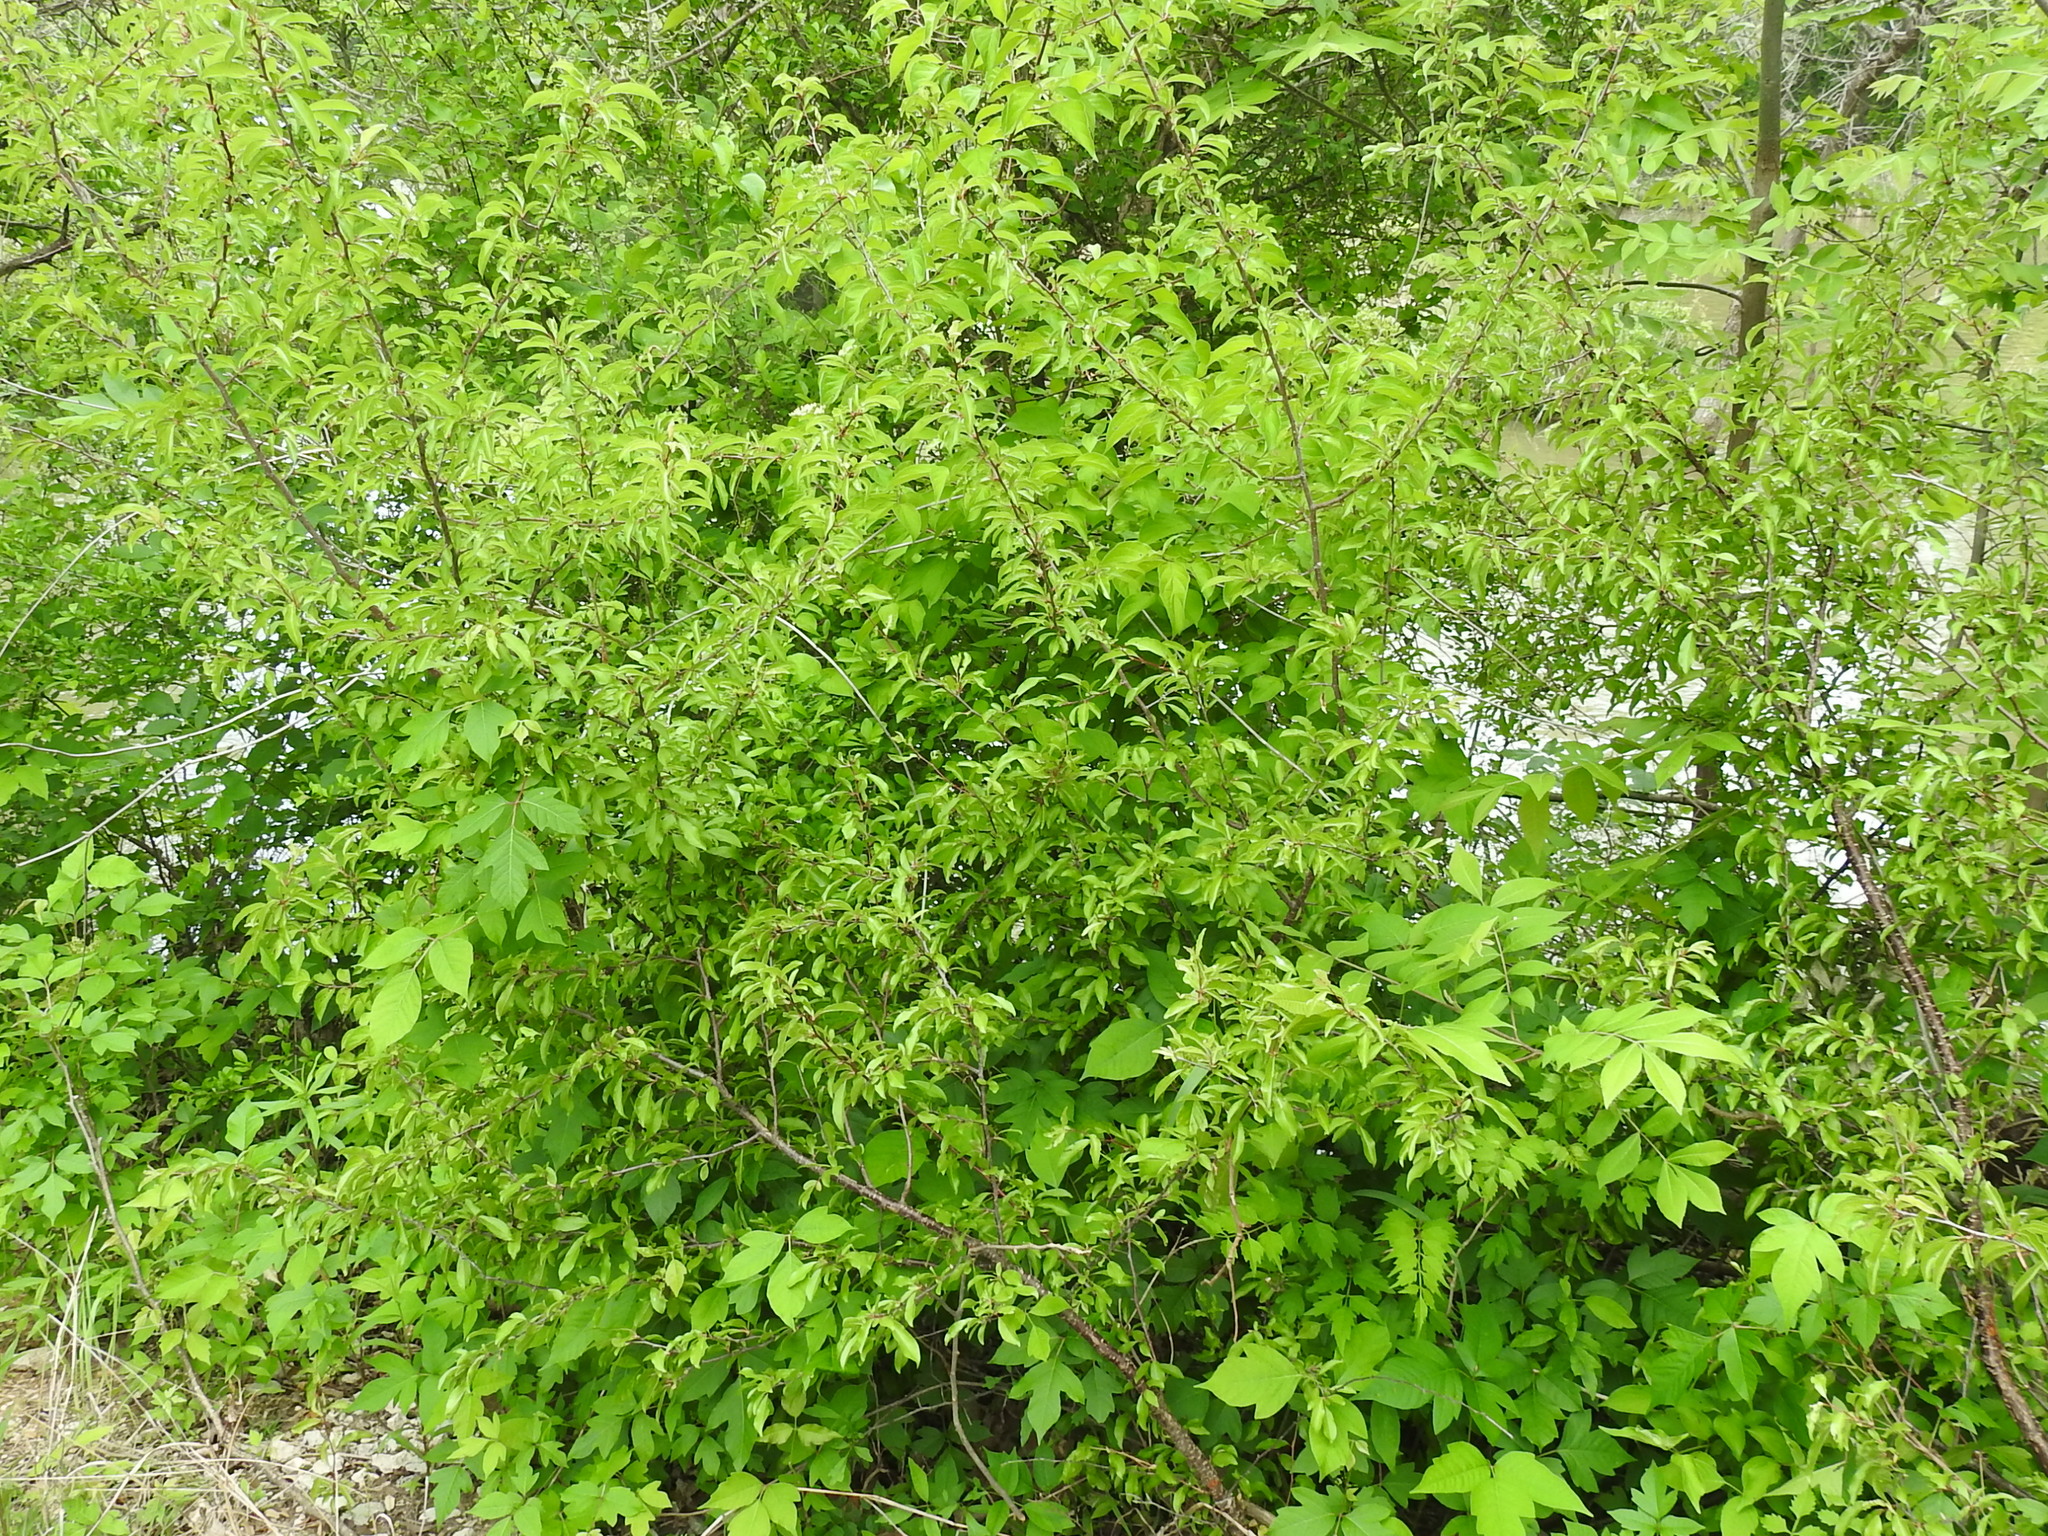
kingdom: Plantae
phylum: Tracheophyta
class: Magnoliopsida
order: Rosales
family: Rosaceae
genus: Prunus
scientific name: Prunus rivularis
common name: Creek plum
